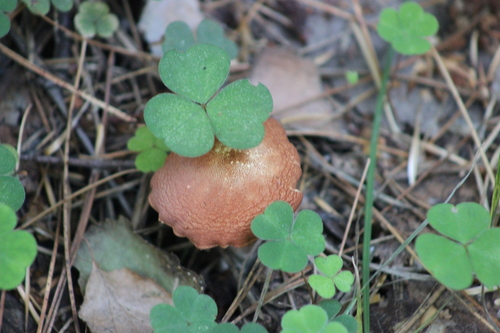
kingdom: Fungi
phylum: Basidiomycota
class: Agaricomycetes
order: Agaricales
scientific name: Agaricales
